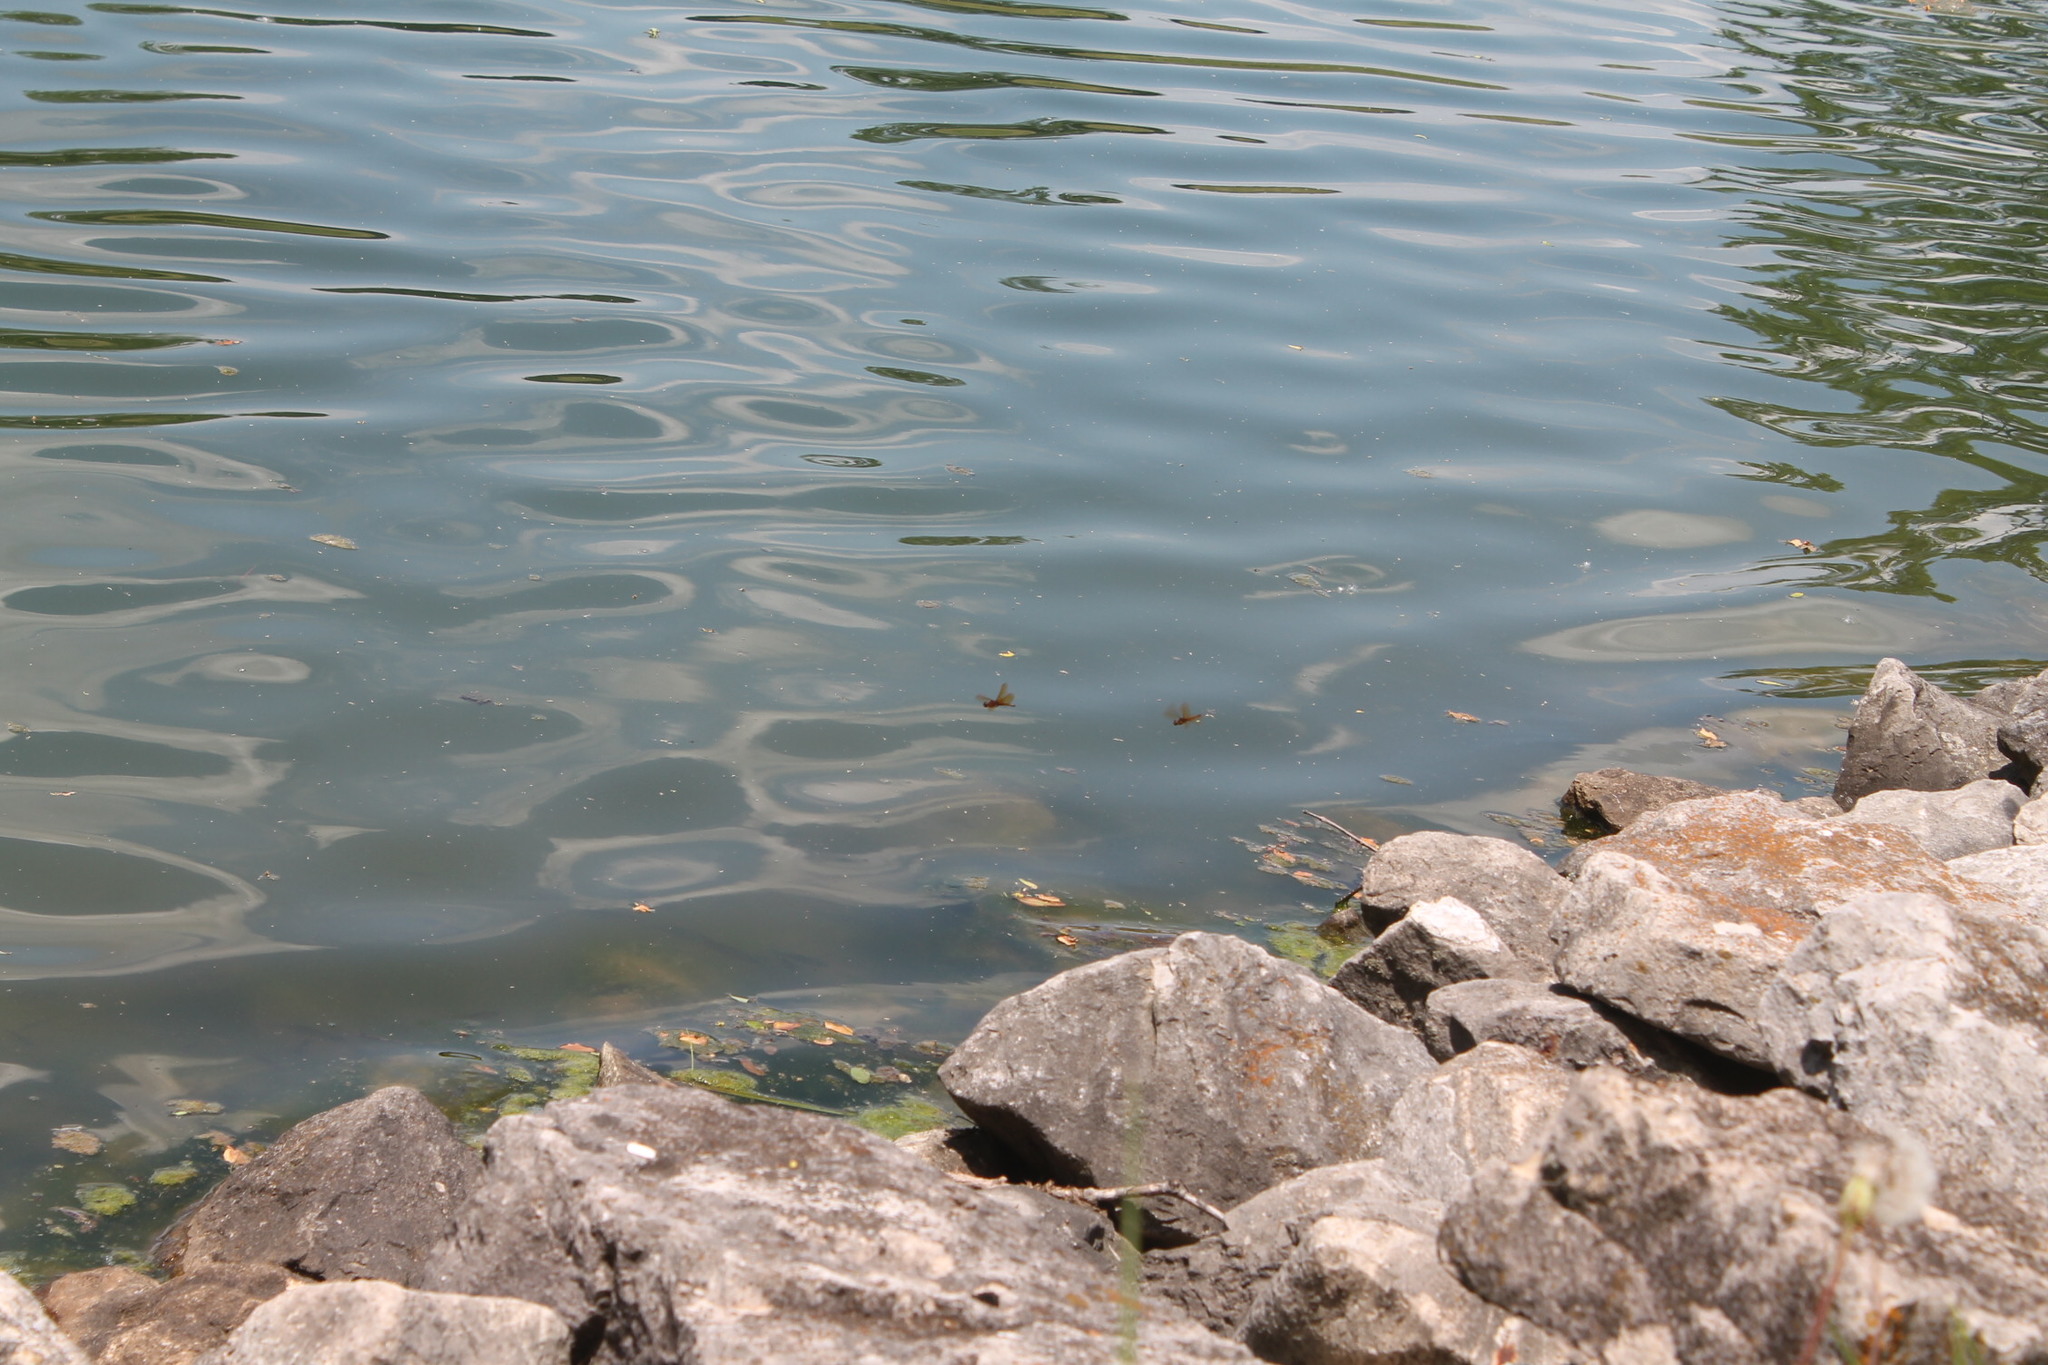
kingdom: Animalia
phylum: Arthropoda
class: Insecta
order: Odonata
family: Libellulidae
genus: Perithemis
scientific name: Perithemis tenera
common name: Eastern amberwing
